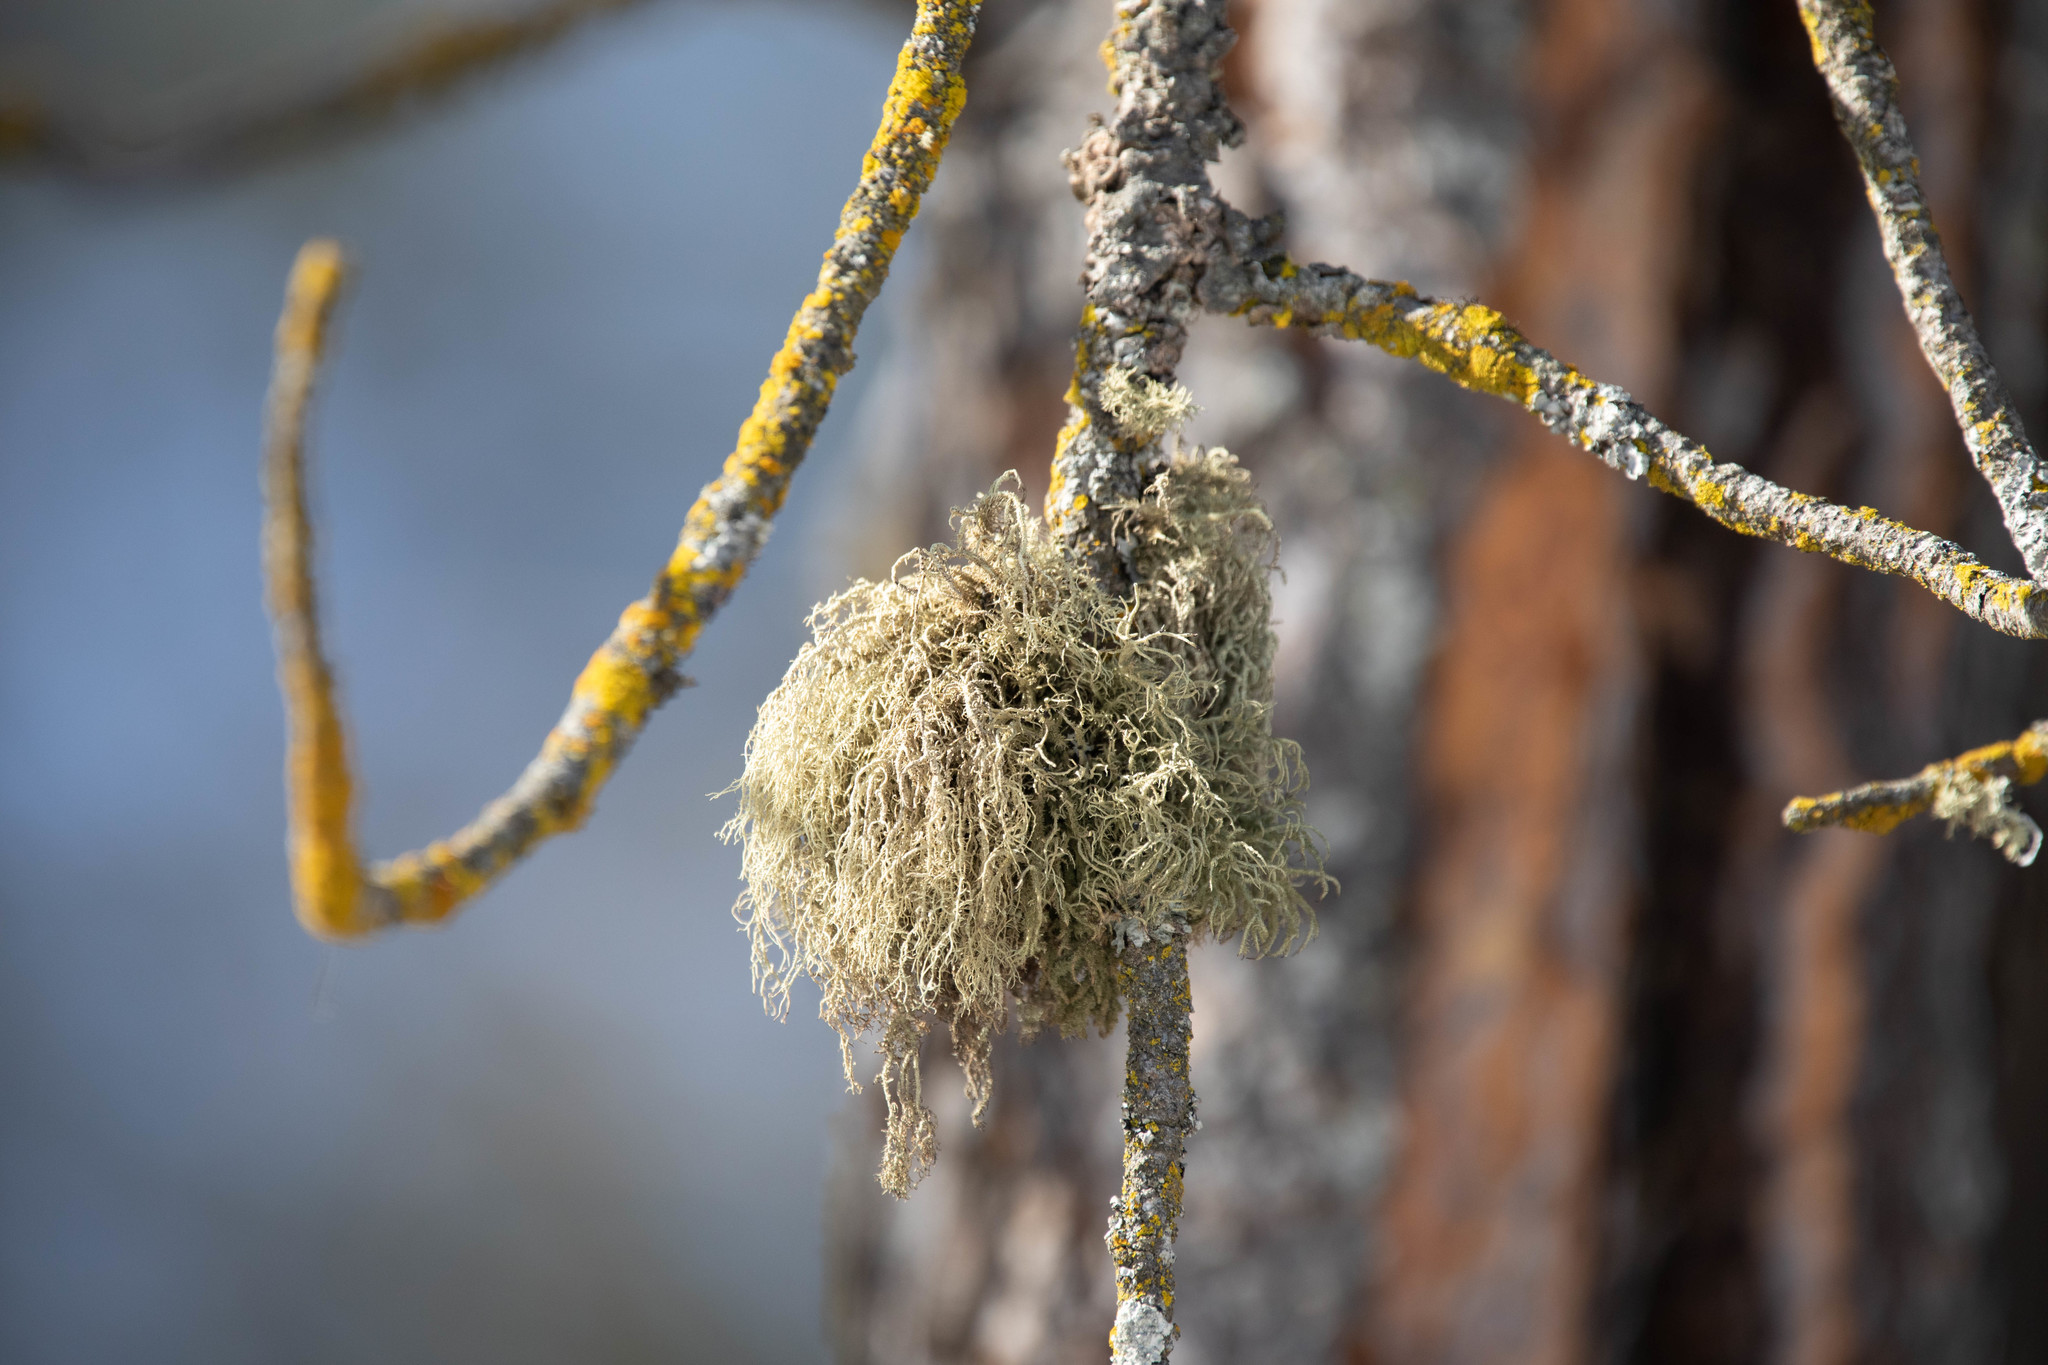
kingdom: Fungi
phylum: Ascomycota
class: Lecanoromycetes
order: Lecanorales
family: Parmeliaceae
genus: Usnea
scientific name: Usnea hirta
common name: Bristly beard lichen
